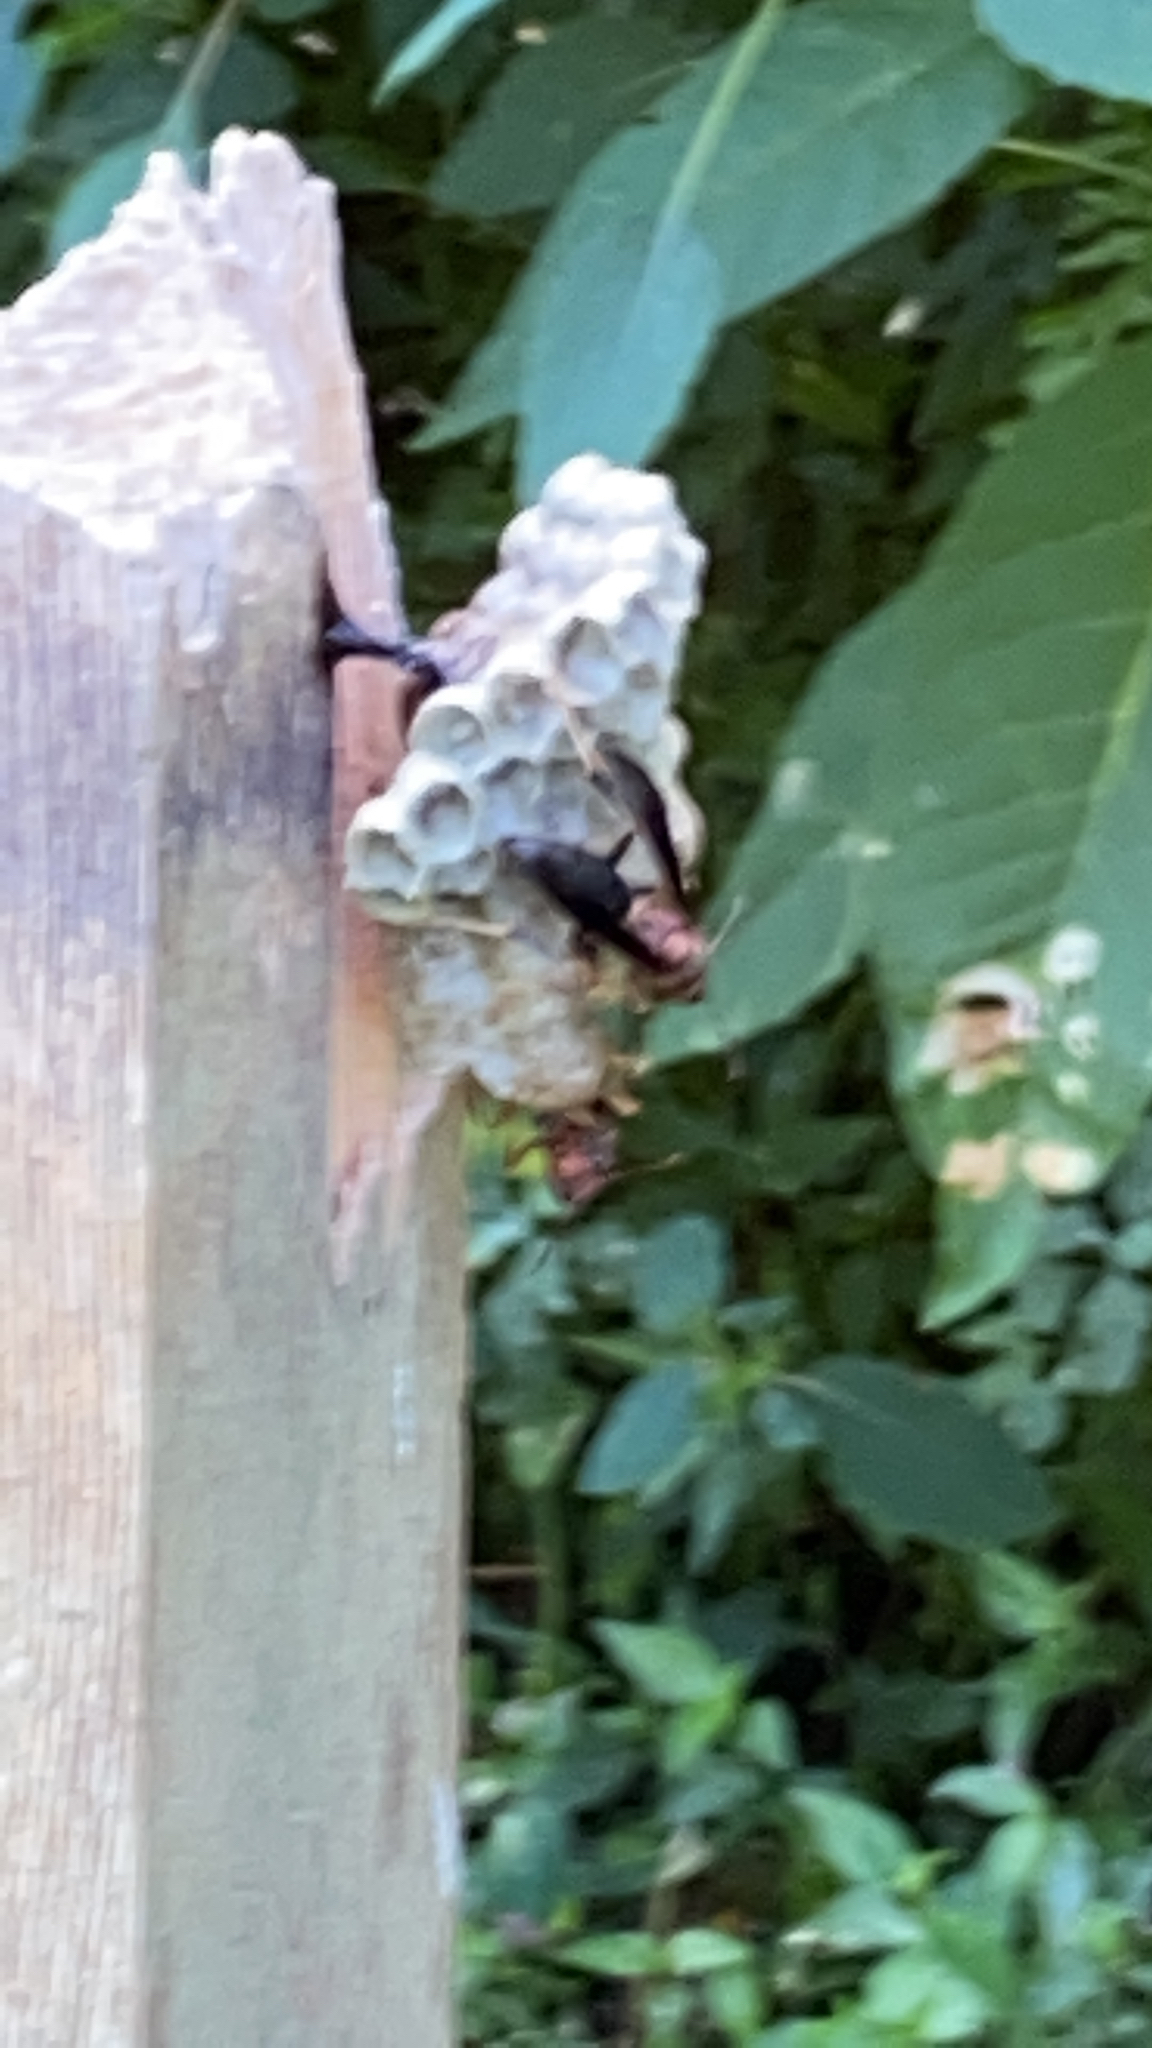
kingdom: Animalia
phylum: Arthropoda
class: Insecta
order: Hymenoptera
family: Eumenidae
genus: Polistes
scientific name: Polistes metricus
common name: Metric paper wasp
